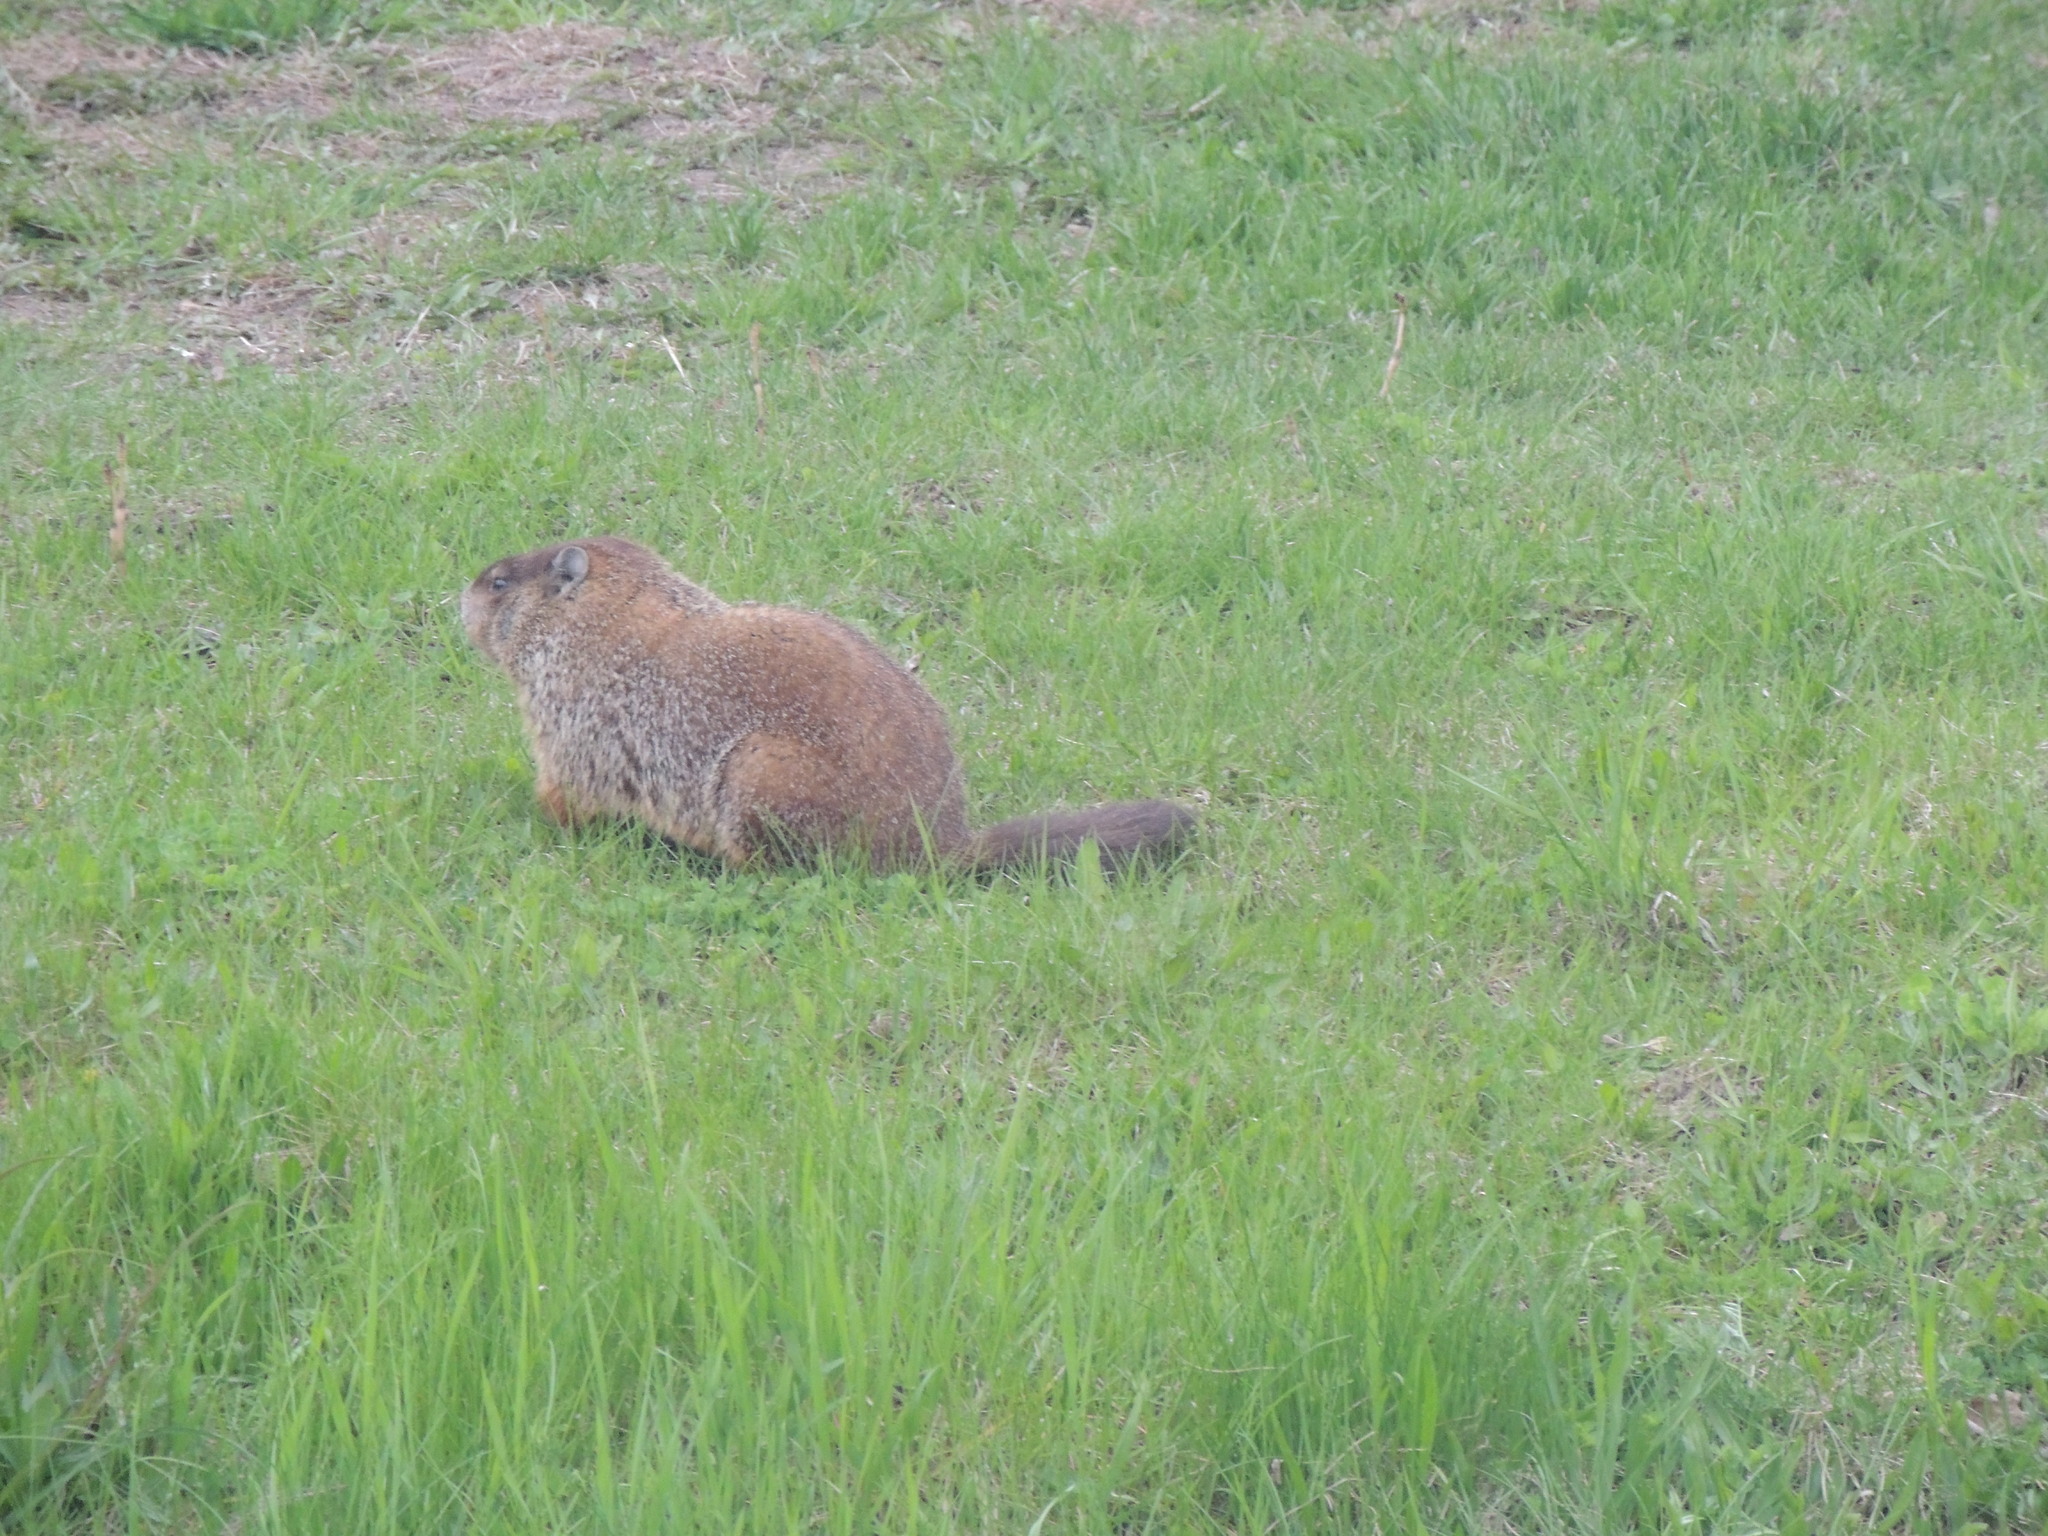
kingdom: Animalia
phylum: Chordata
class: Mammalia
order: Rodentia
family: Sciuridae
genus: Marmota
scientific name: Marmota monax
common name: Groundhog
